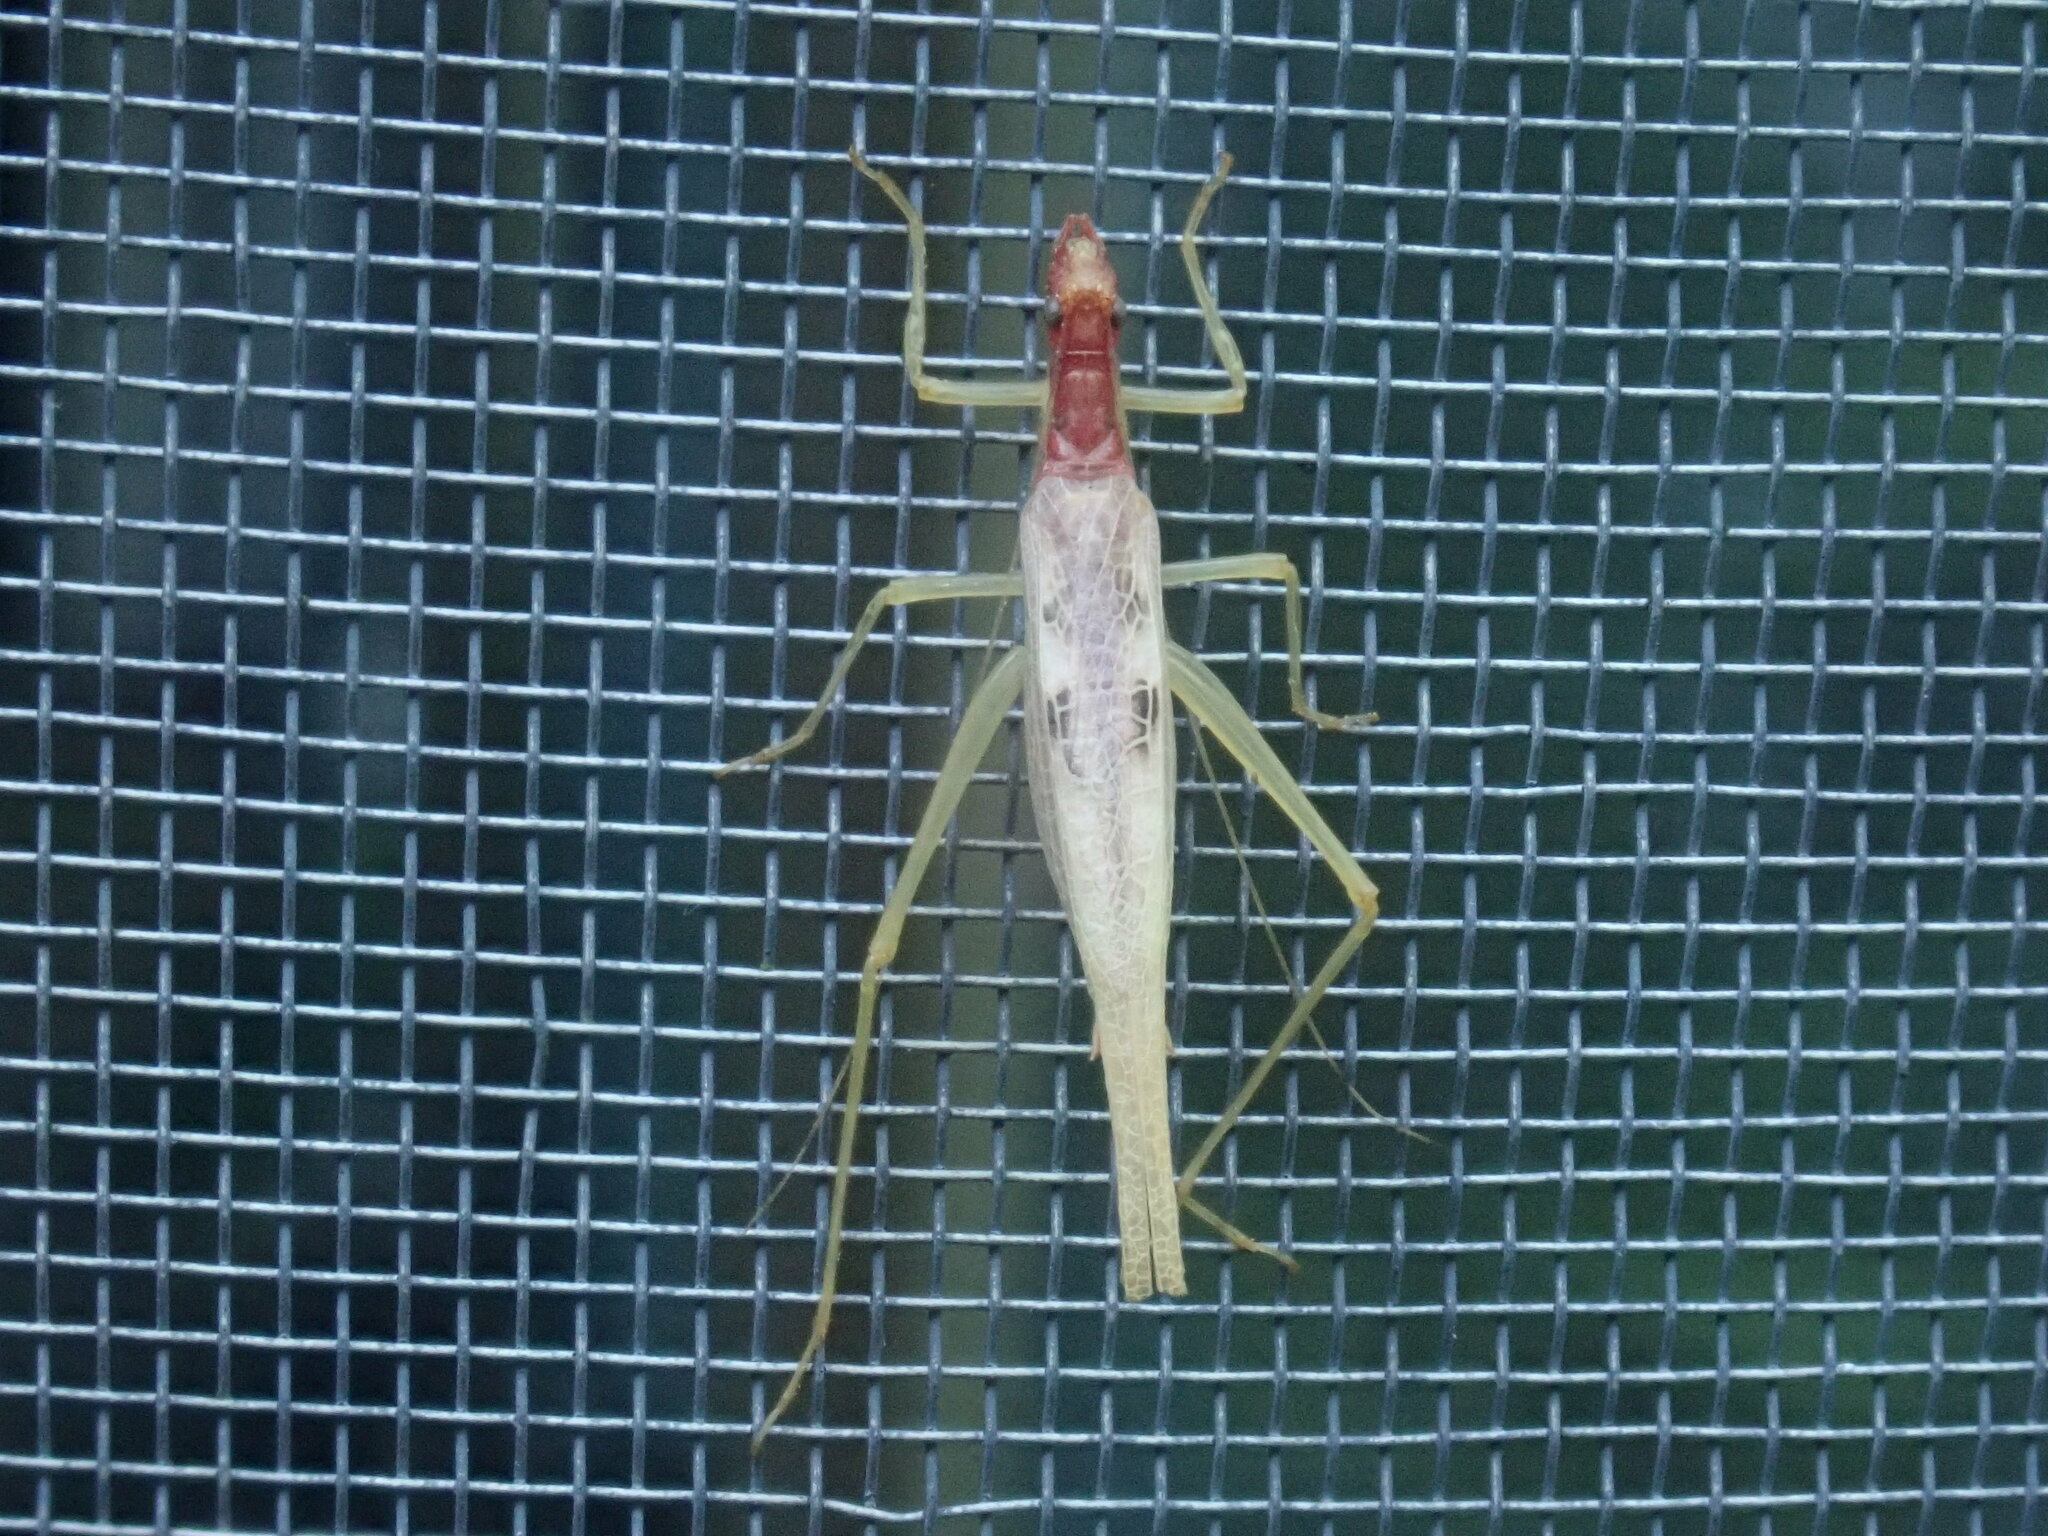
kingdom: Animalia
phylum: Arthropoda
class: Insecta
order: Orthoptera
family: Gryllidae
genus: Neoxabea
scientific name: Neoxabea bipunctata
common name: Two-spotted tree cricket
